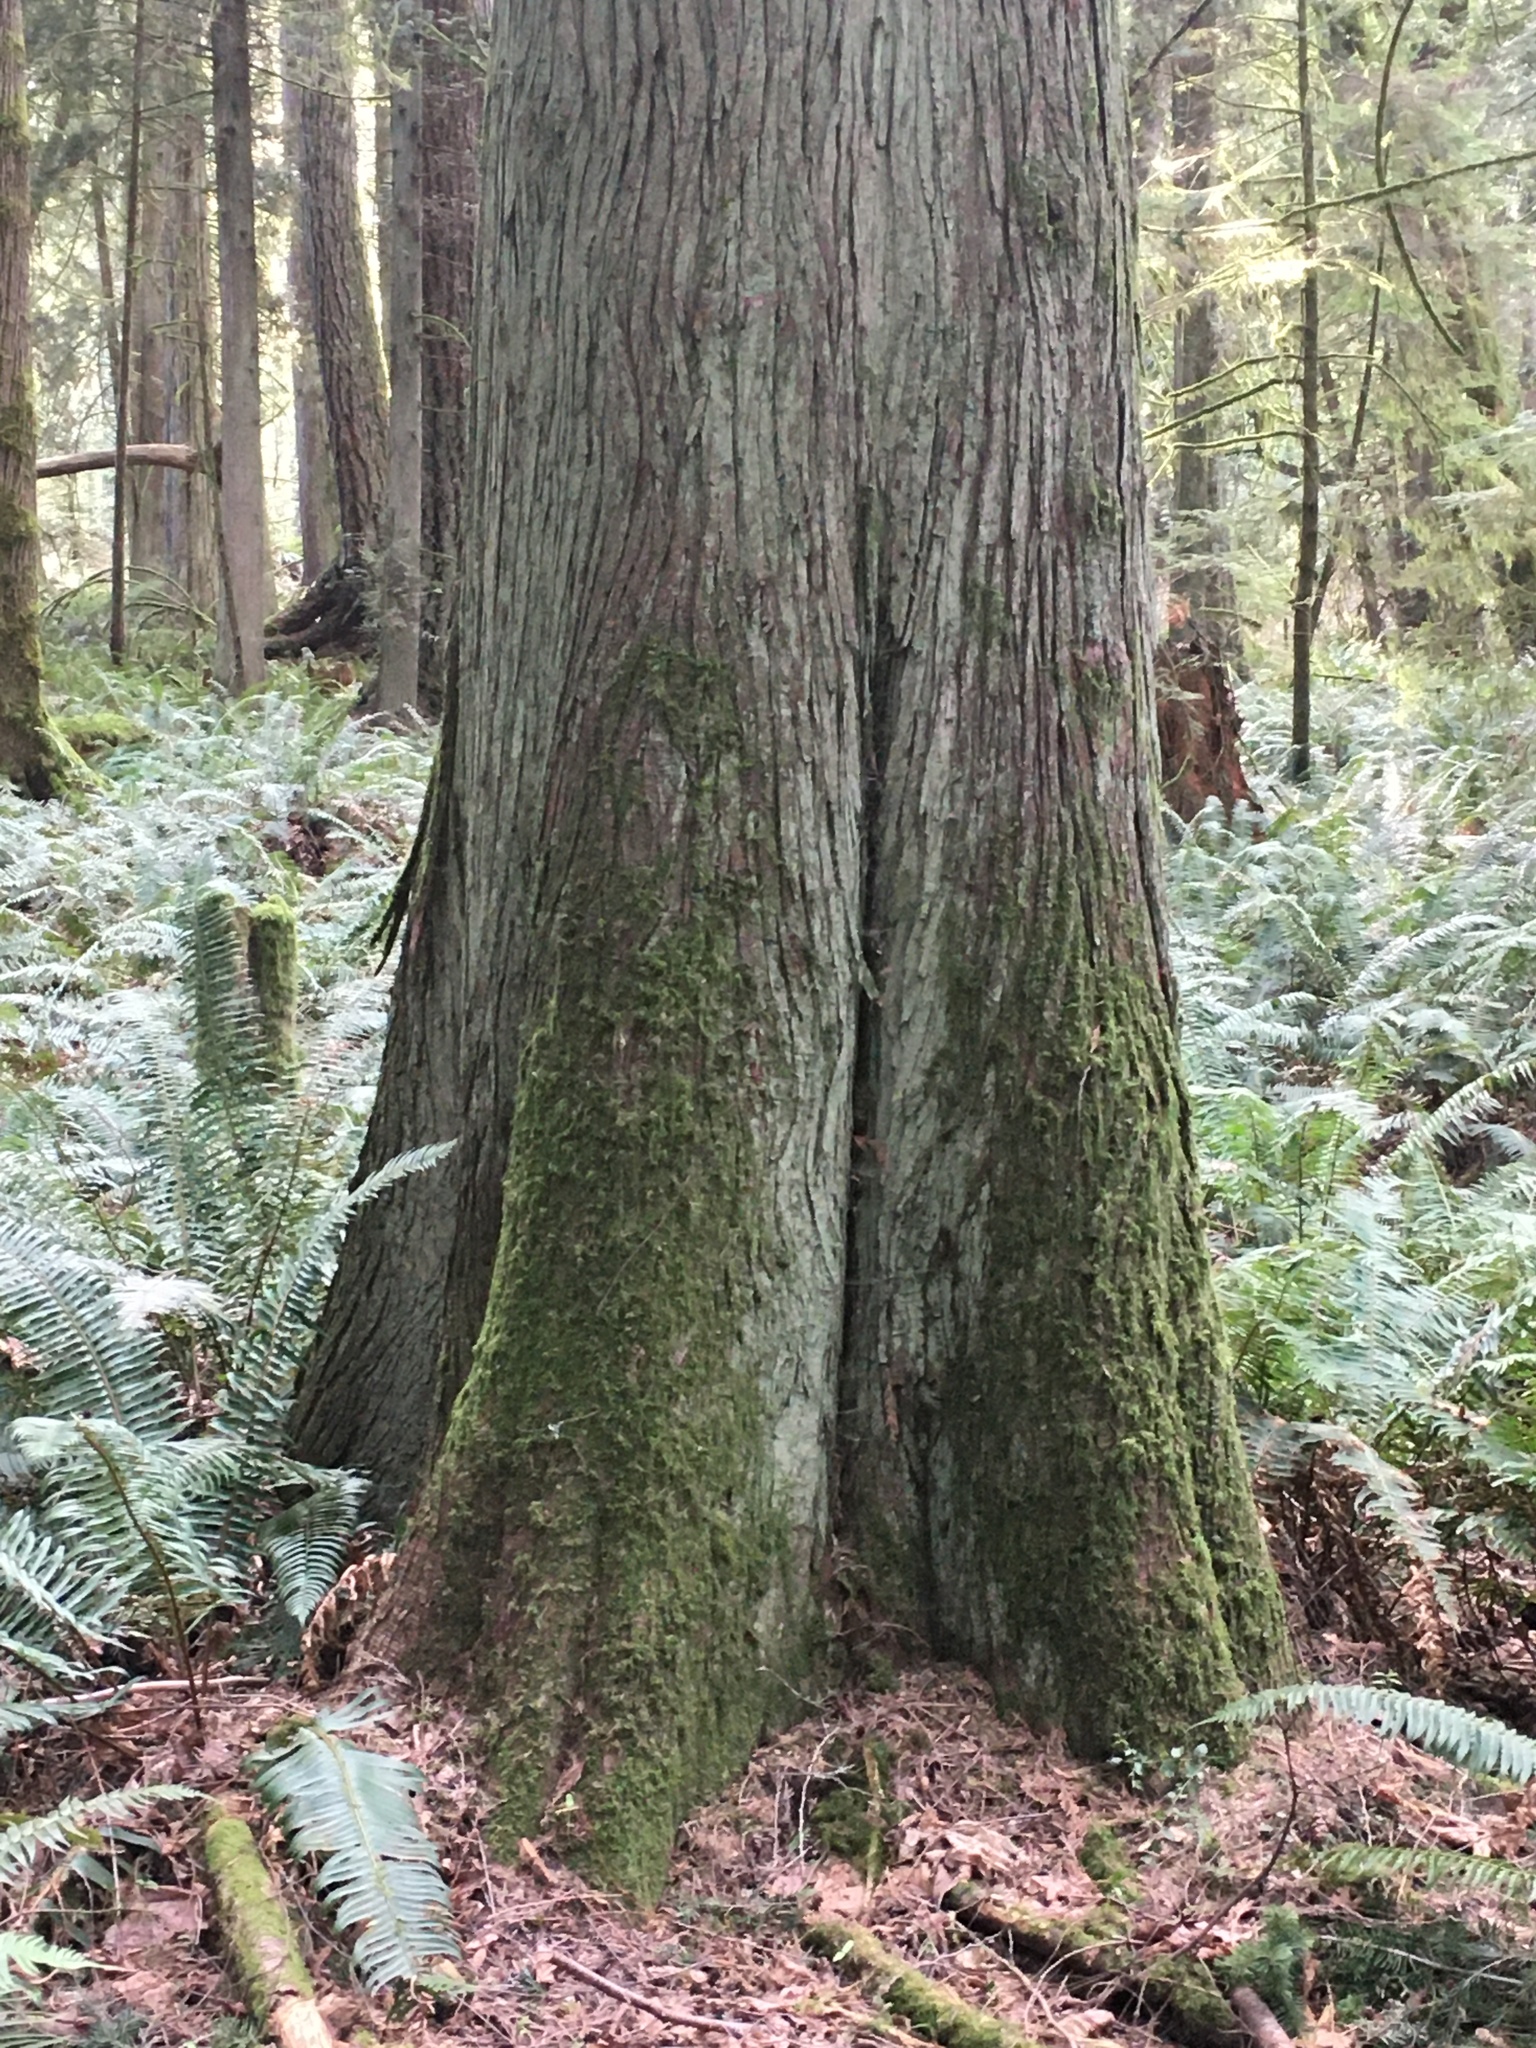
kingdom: Plantae
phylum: Tracheophyta
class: Pinopsida
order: Pinales
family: Cupressaceae
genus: Thuja
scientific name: Thuja plicata
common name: Western red-cedar
